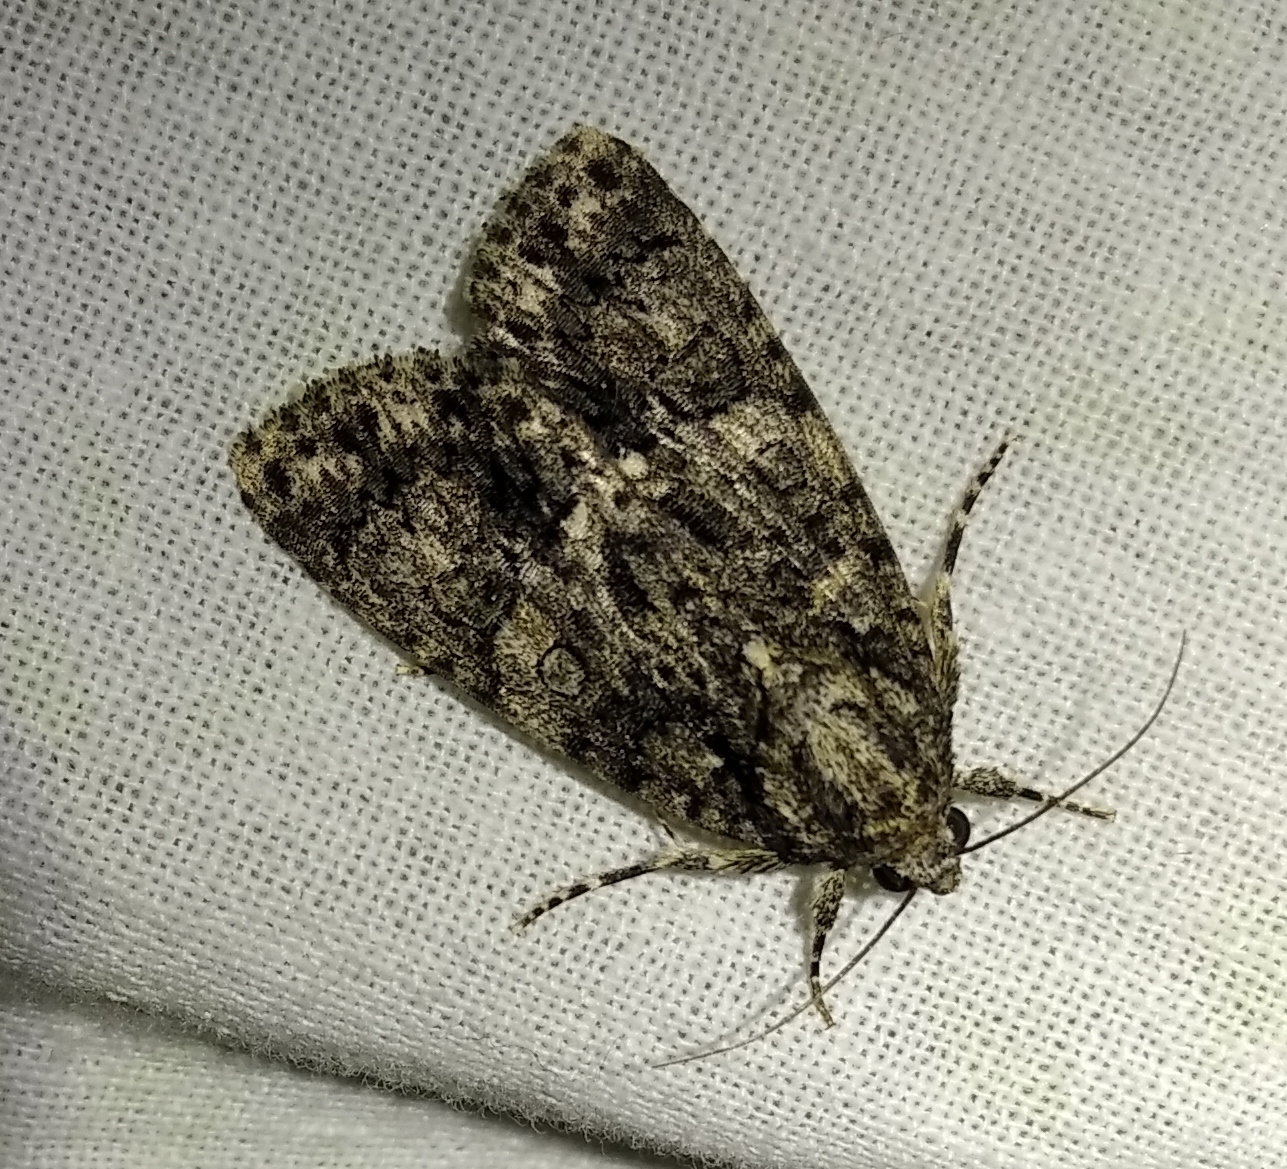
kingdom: Animalia
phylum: Arthropoda
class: Insecta
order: Lepidoptera
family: Noctuidae
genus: Acronicta
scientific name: Acronicta rumicis
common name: Knot grass
